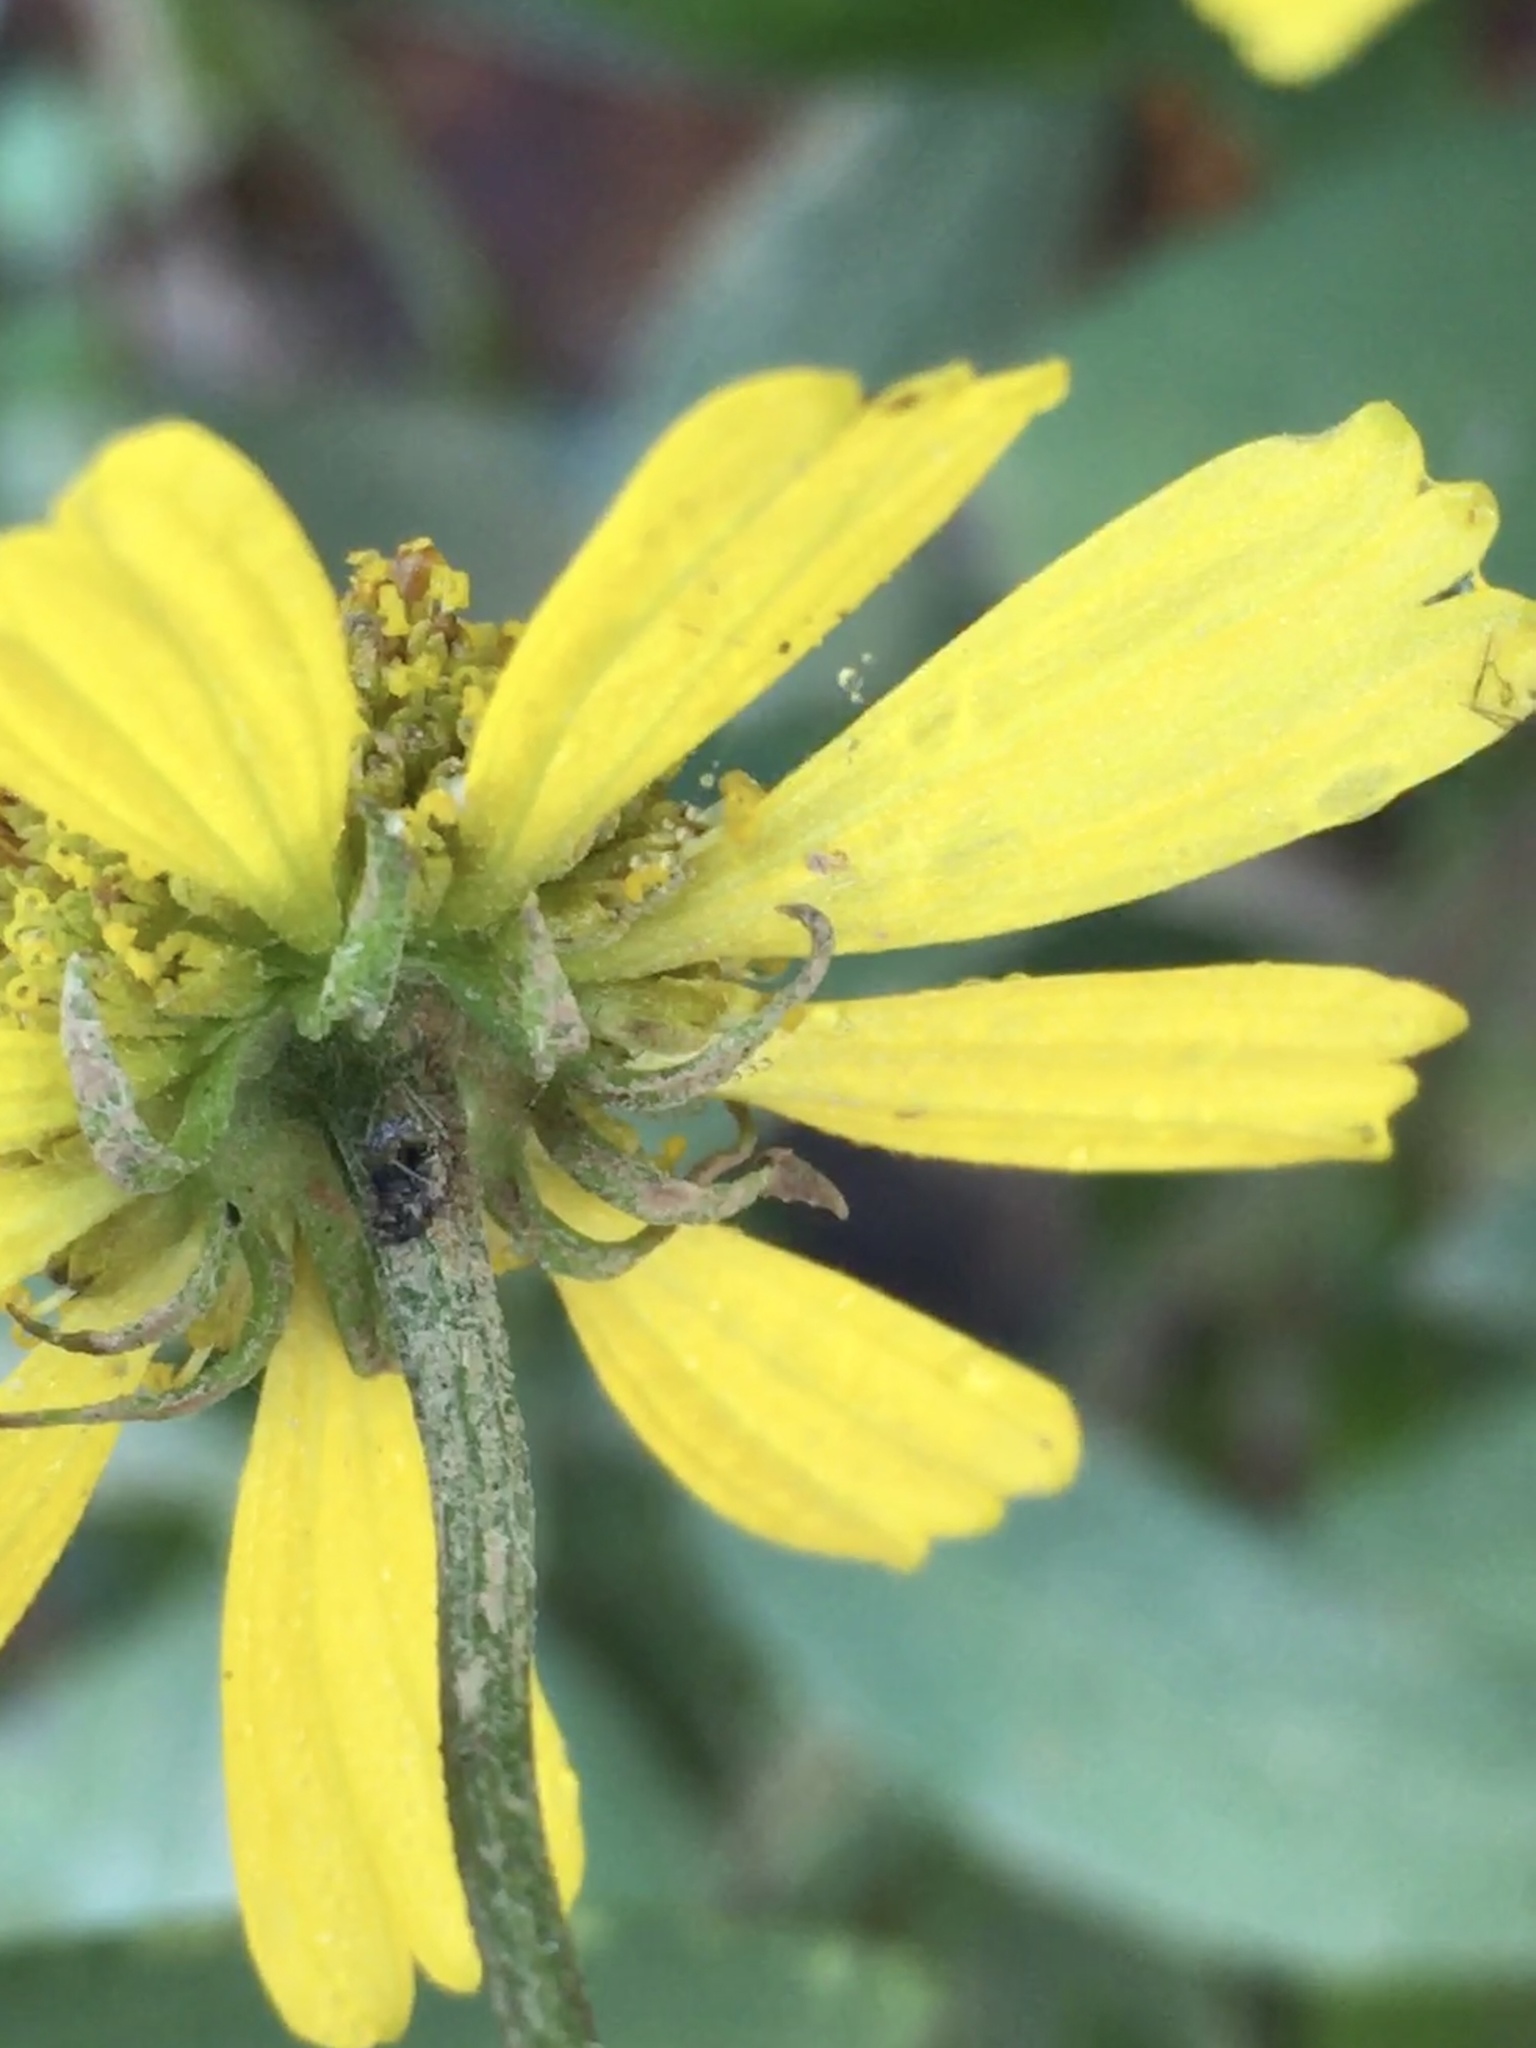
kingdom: Plantae
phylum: Tracheophyta
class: Magnoliopsida
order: Asterales
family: Asteraceae
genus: Helenium
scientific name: Helenium autumnale
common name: Sneezeweed
